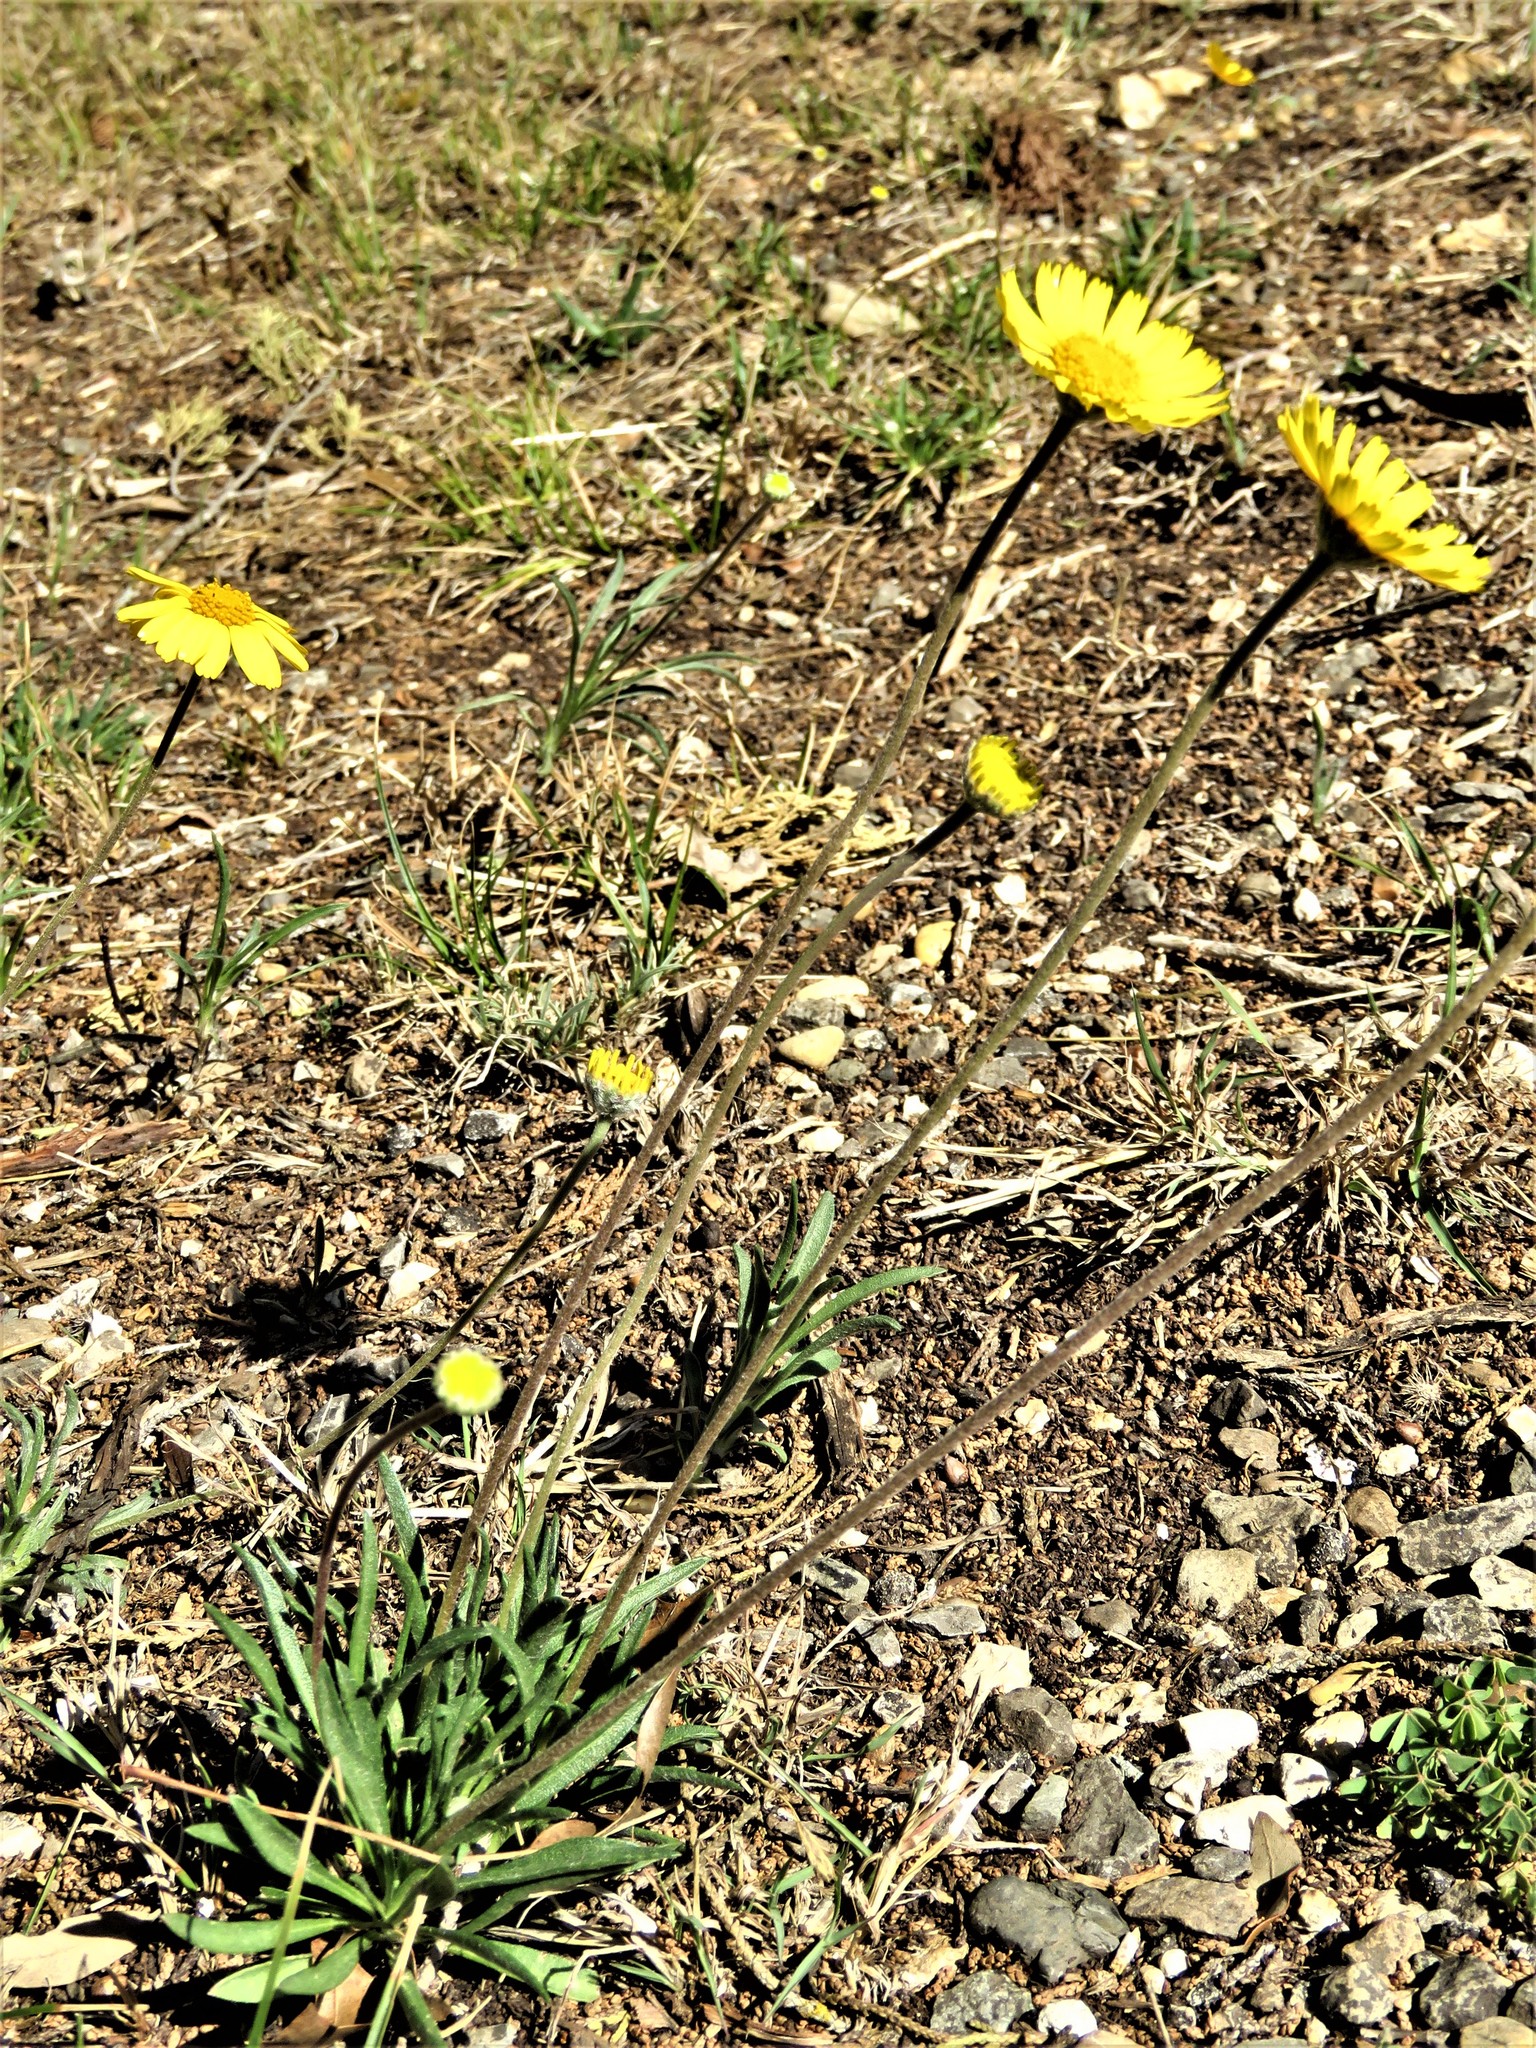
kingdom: Plantae
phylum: Tracheophyta
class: Magnoliopsida
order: Asterales
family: Asteraceae
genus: Tetraneuris
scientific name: Tetraneuris scaposa
